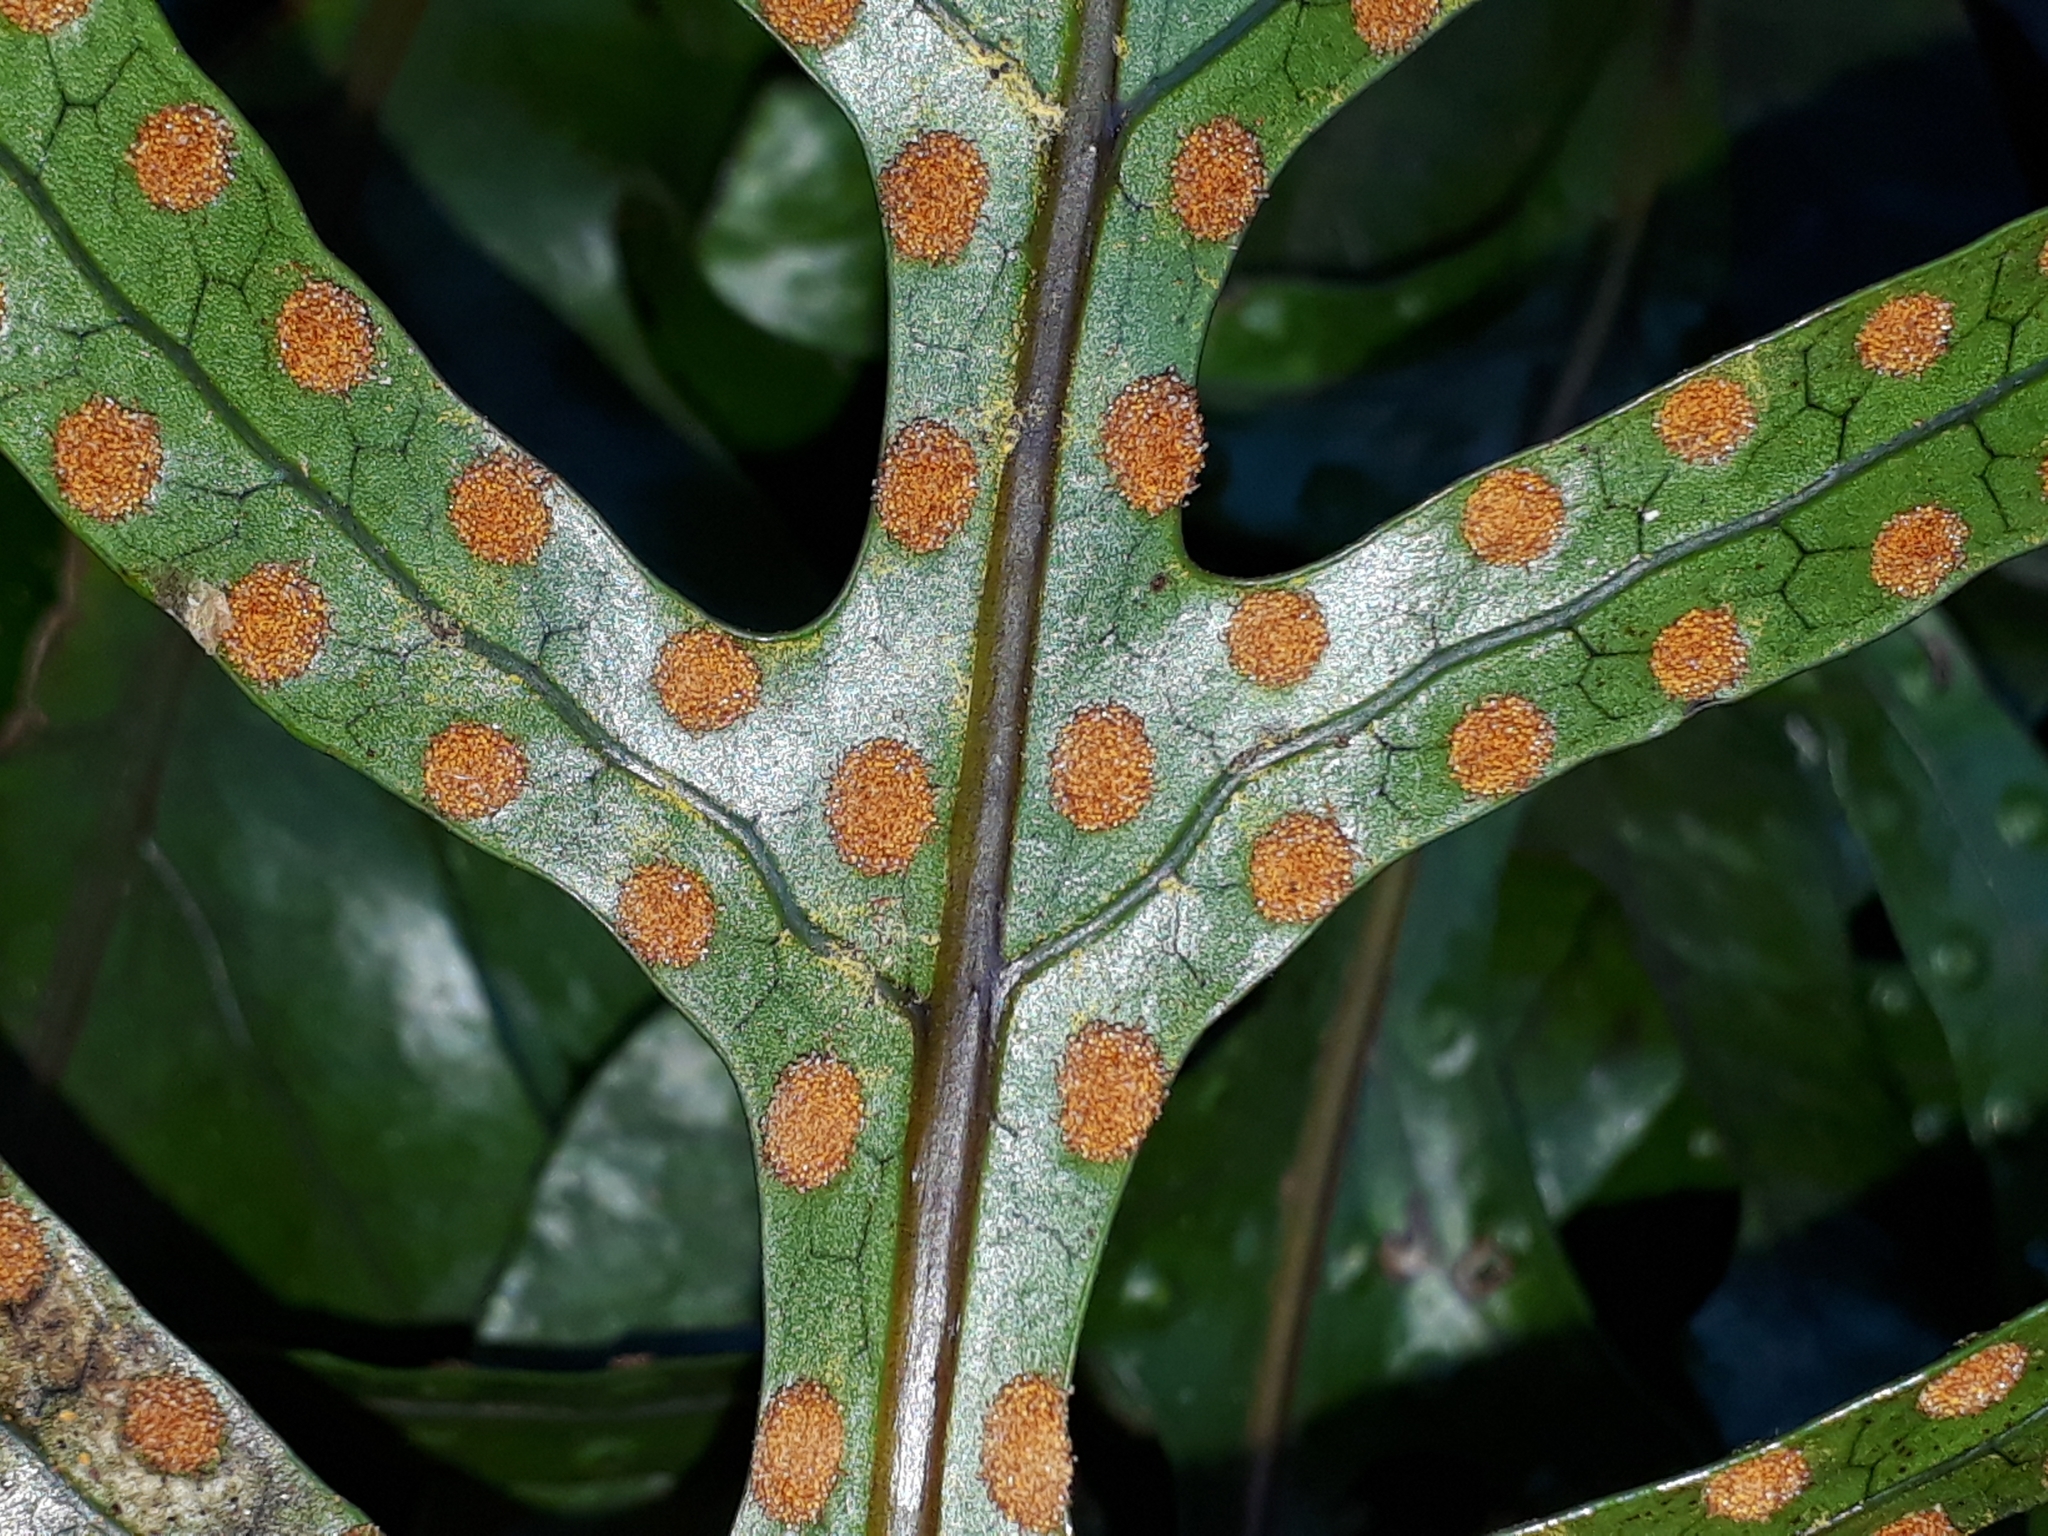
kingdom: Plantae
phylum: Tracheophyta
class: Polypodiopsida
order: Polypodiales
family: Polypodiaceae
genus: Lecanopteris
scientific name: Lecanopteris pustulata
